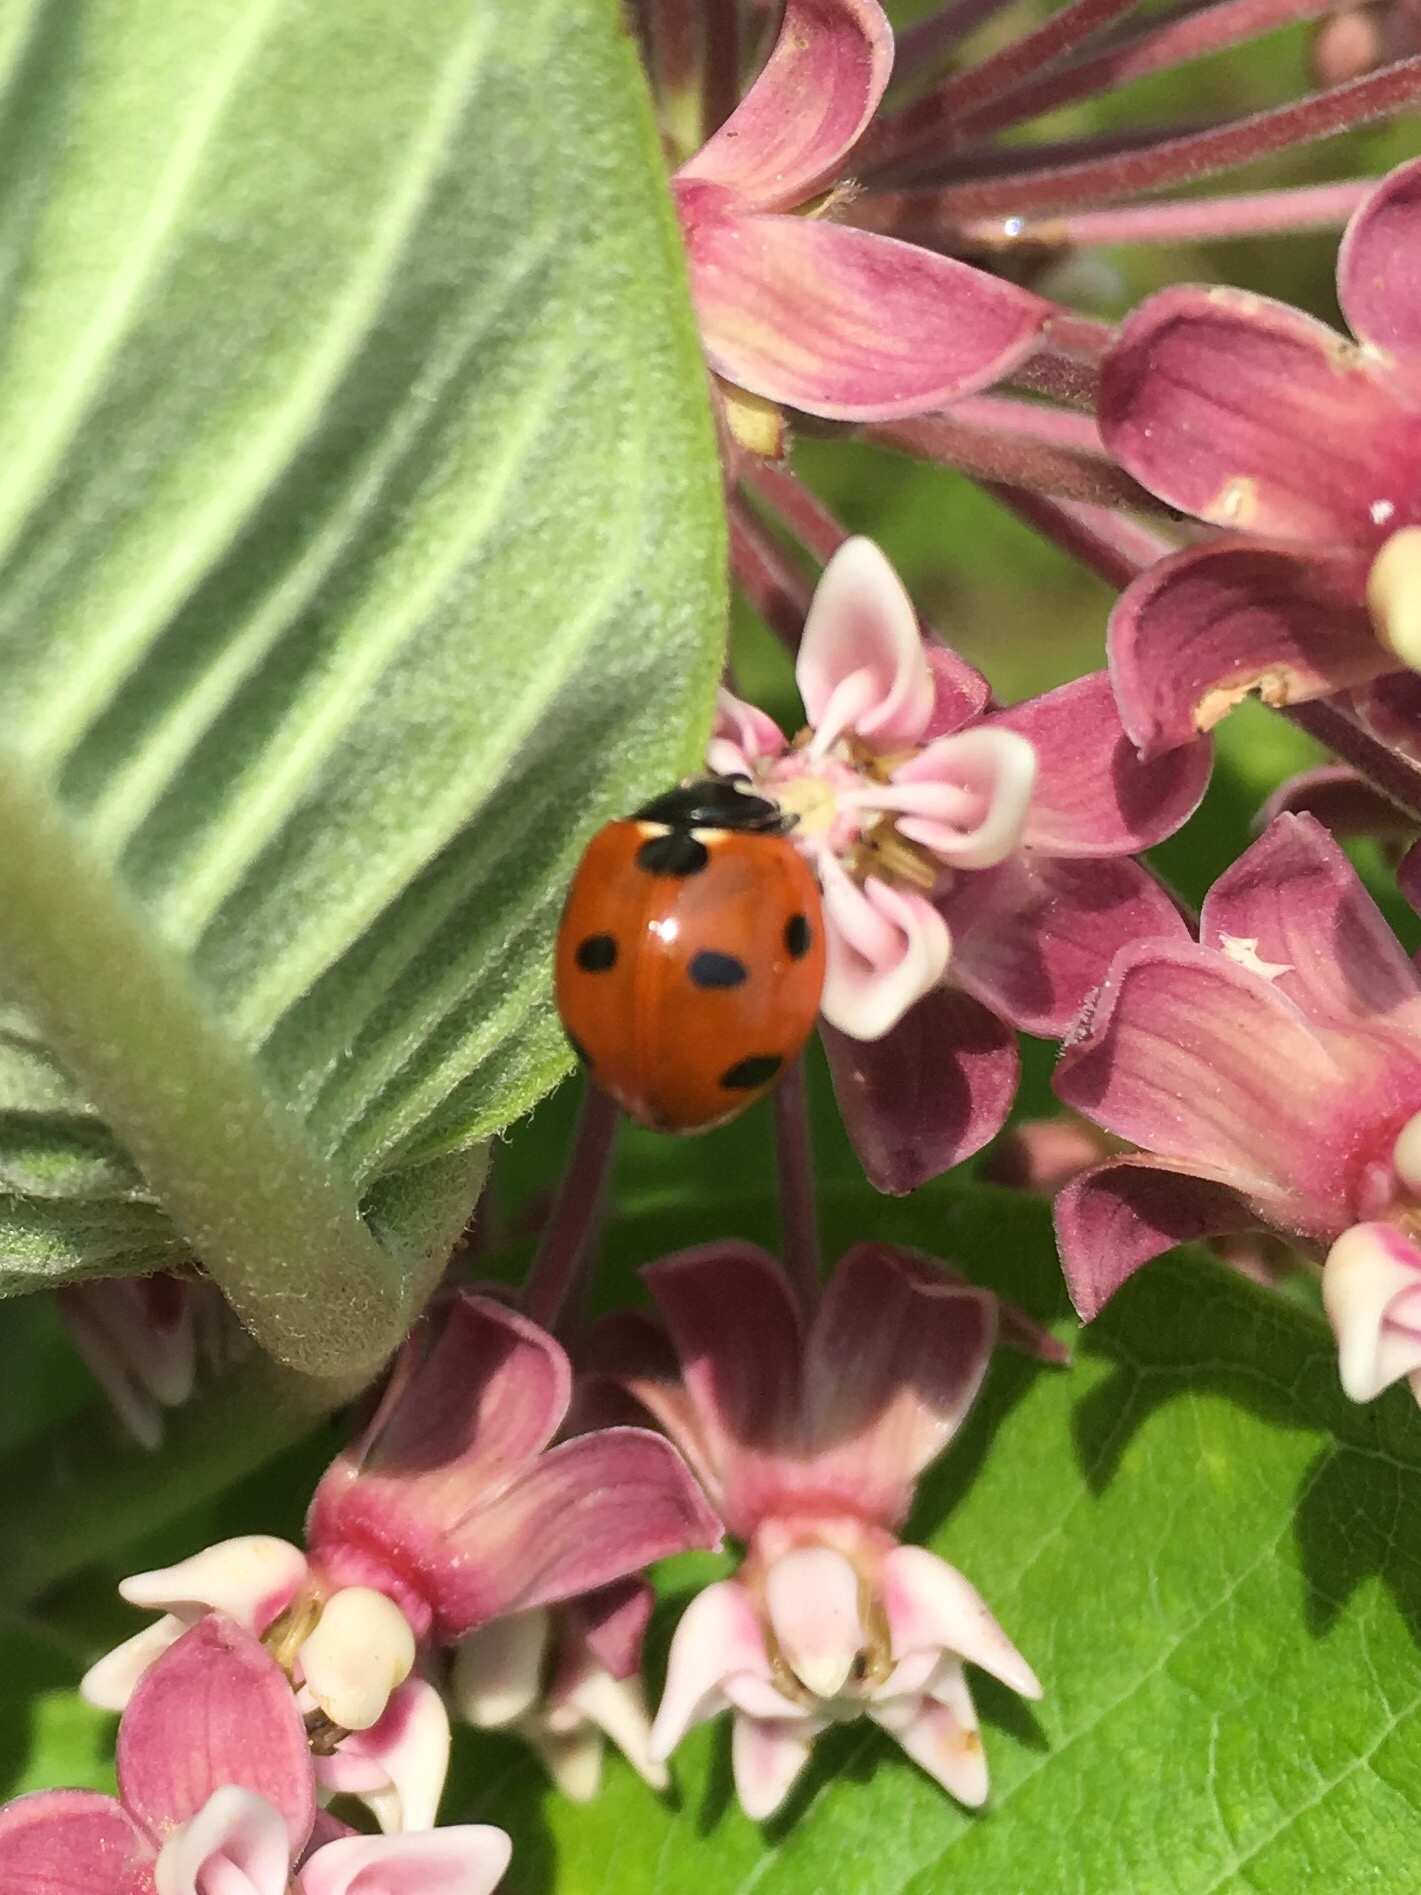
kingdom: Animalia
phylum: Arthropoda
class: Insecta
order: Coleoptera
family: Coccinellidae
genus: Coccinella
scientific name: Coccinella septempunctata
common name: Sevenspotted lady beetle
